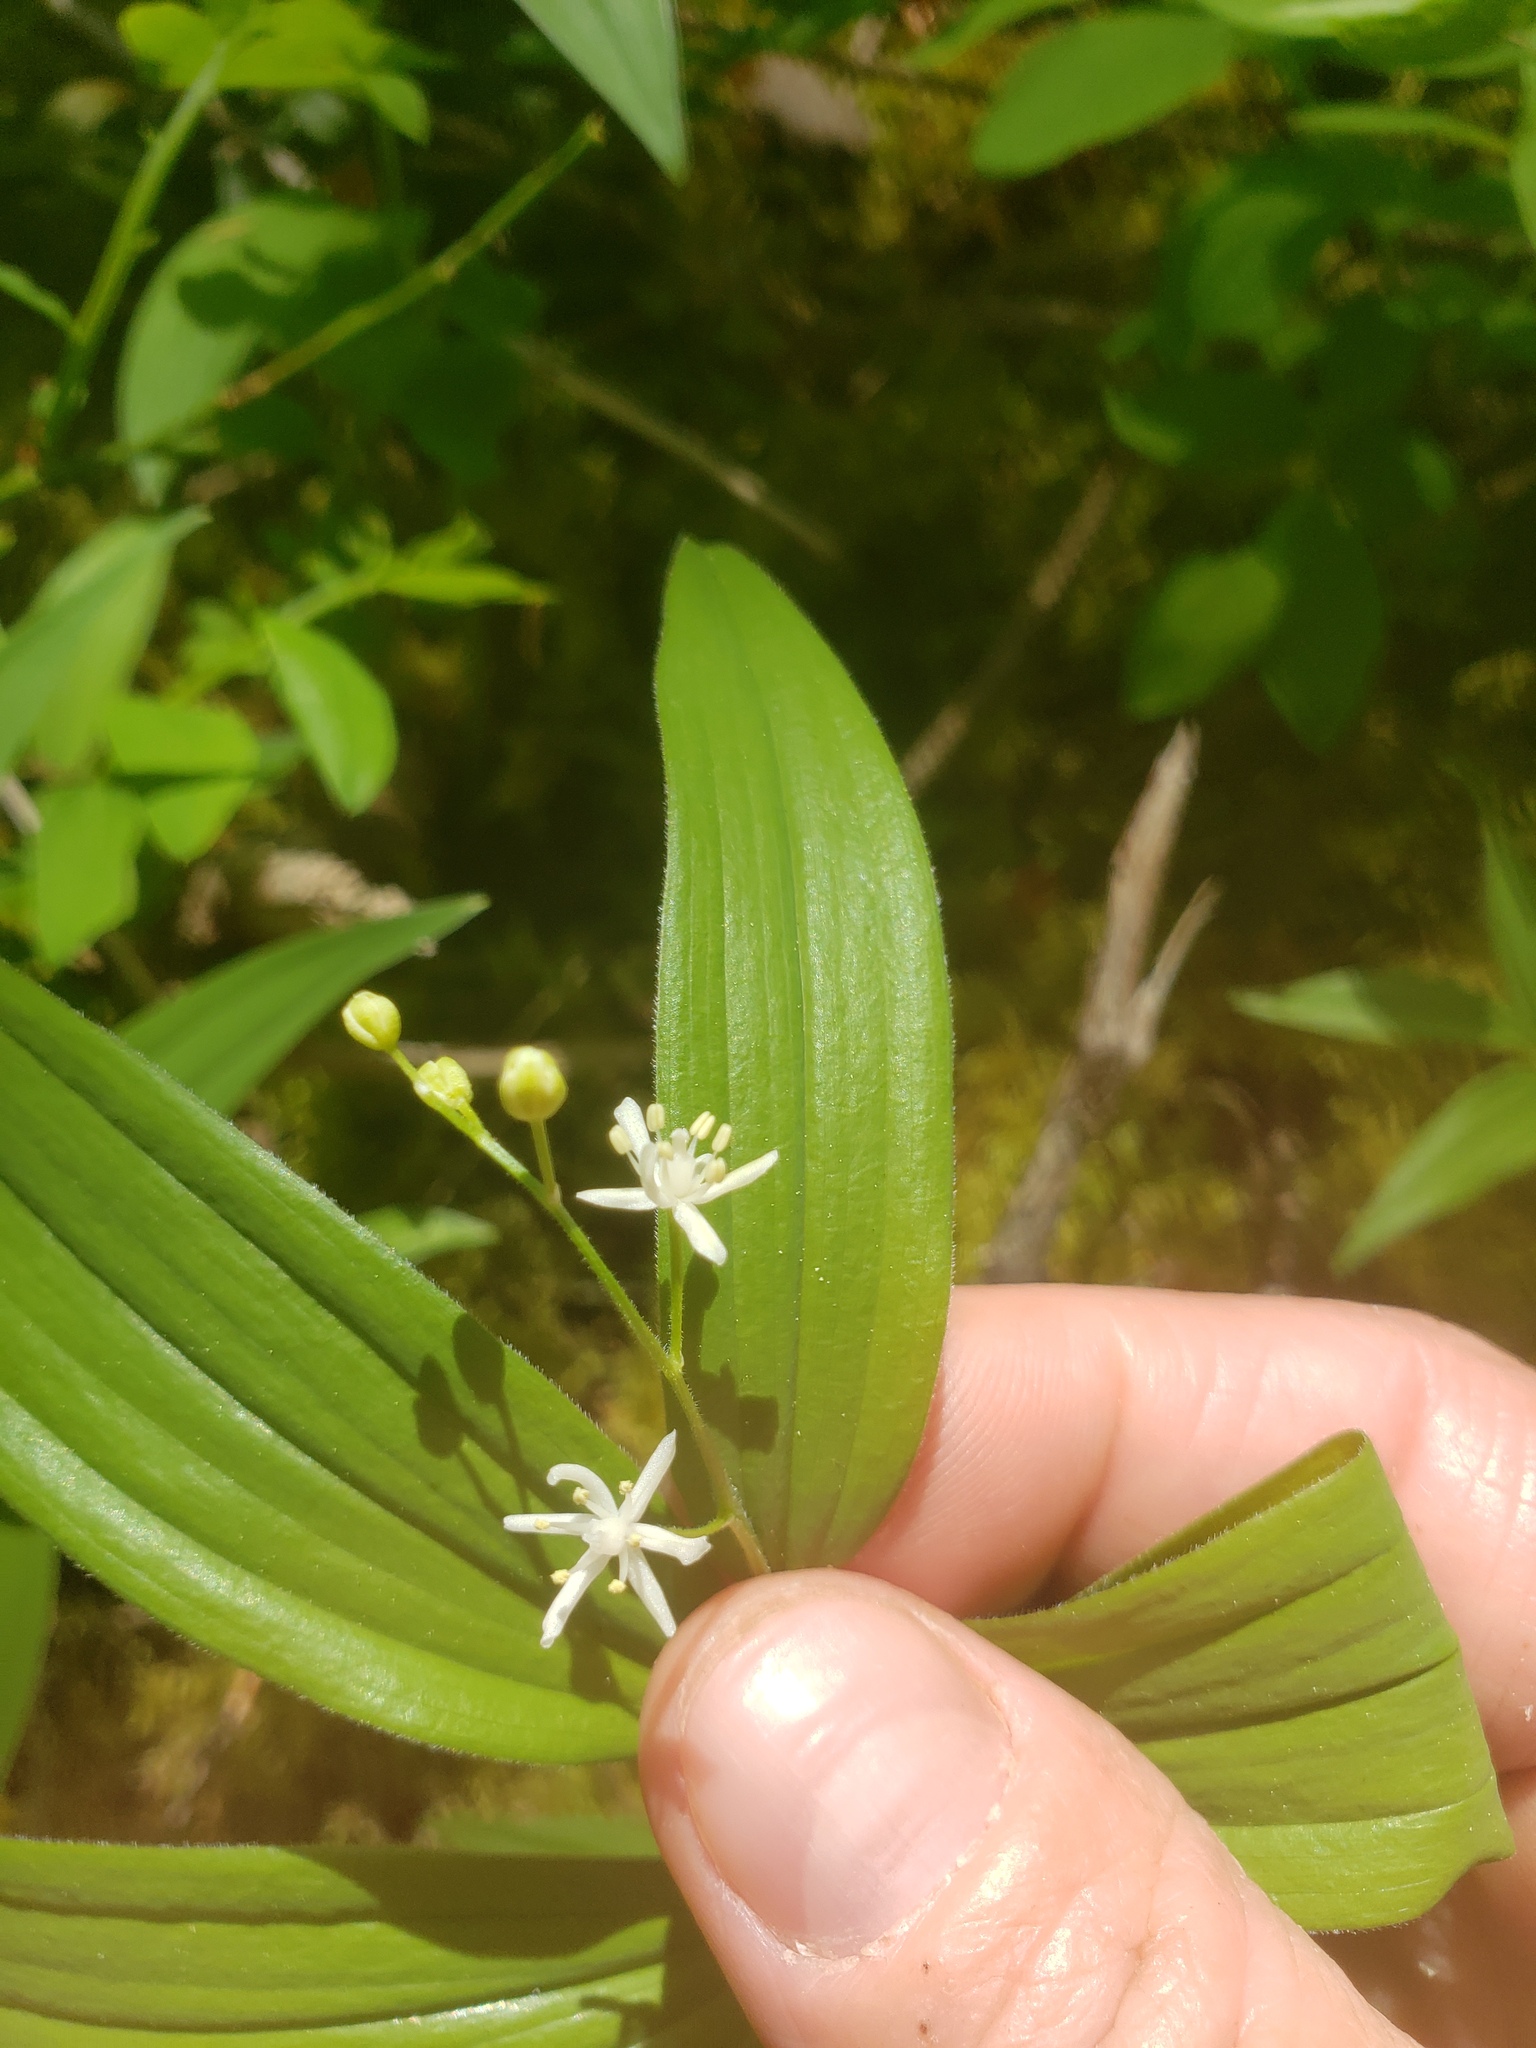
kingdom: Plantae
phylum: Tracheophyta
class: Liliopsida
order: Asparagales
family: Asparagaceae
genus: Maianthemum
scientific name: Maianthemum stellatum
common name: Little false solomon's seal
